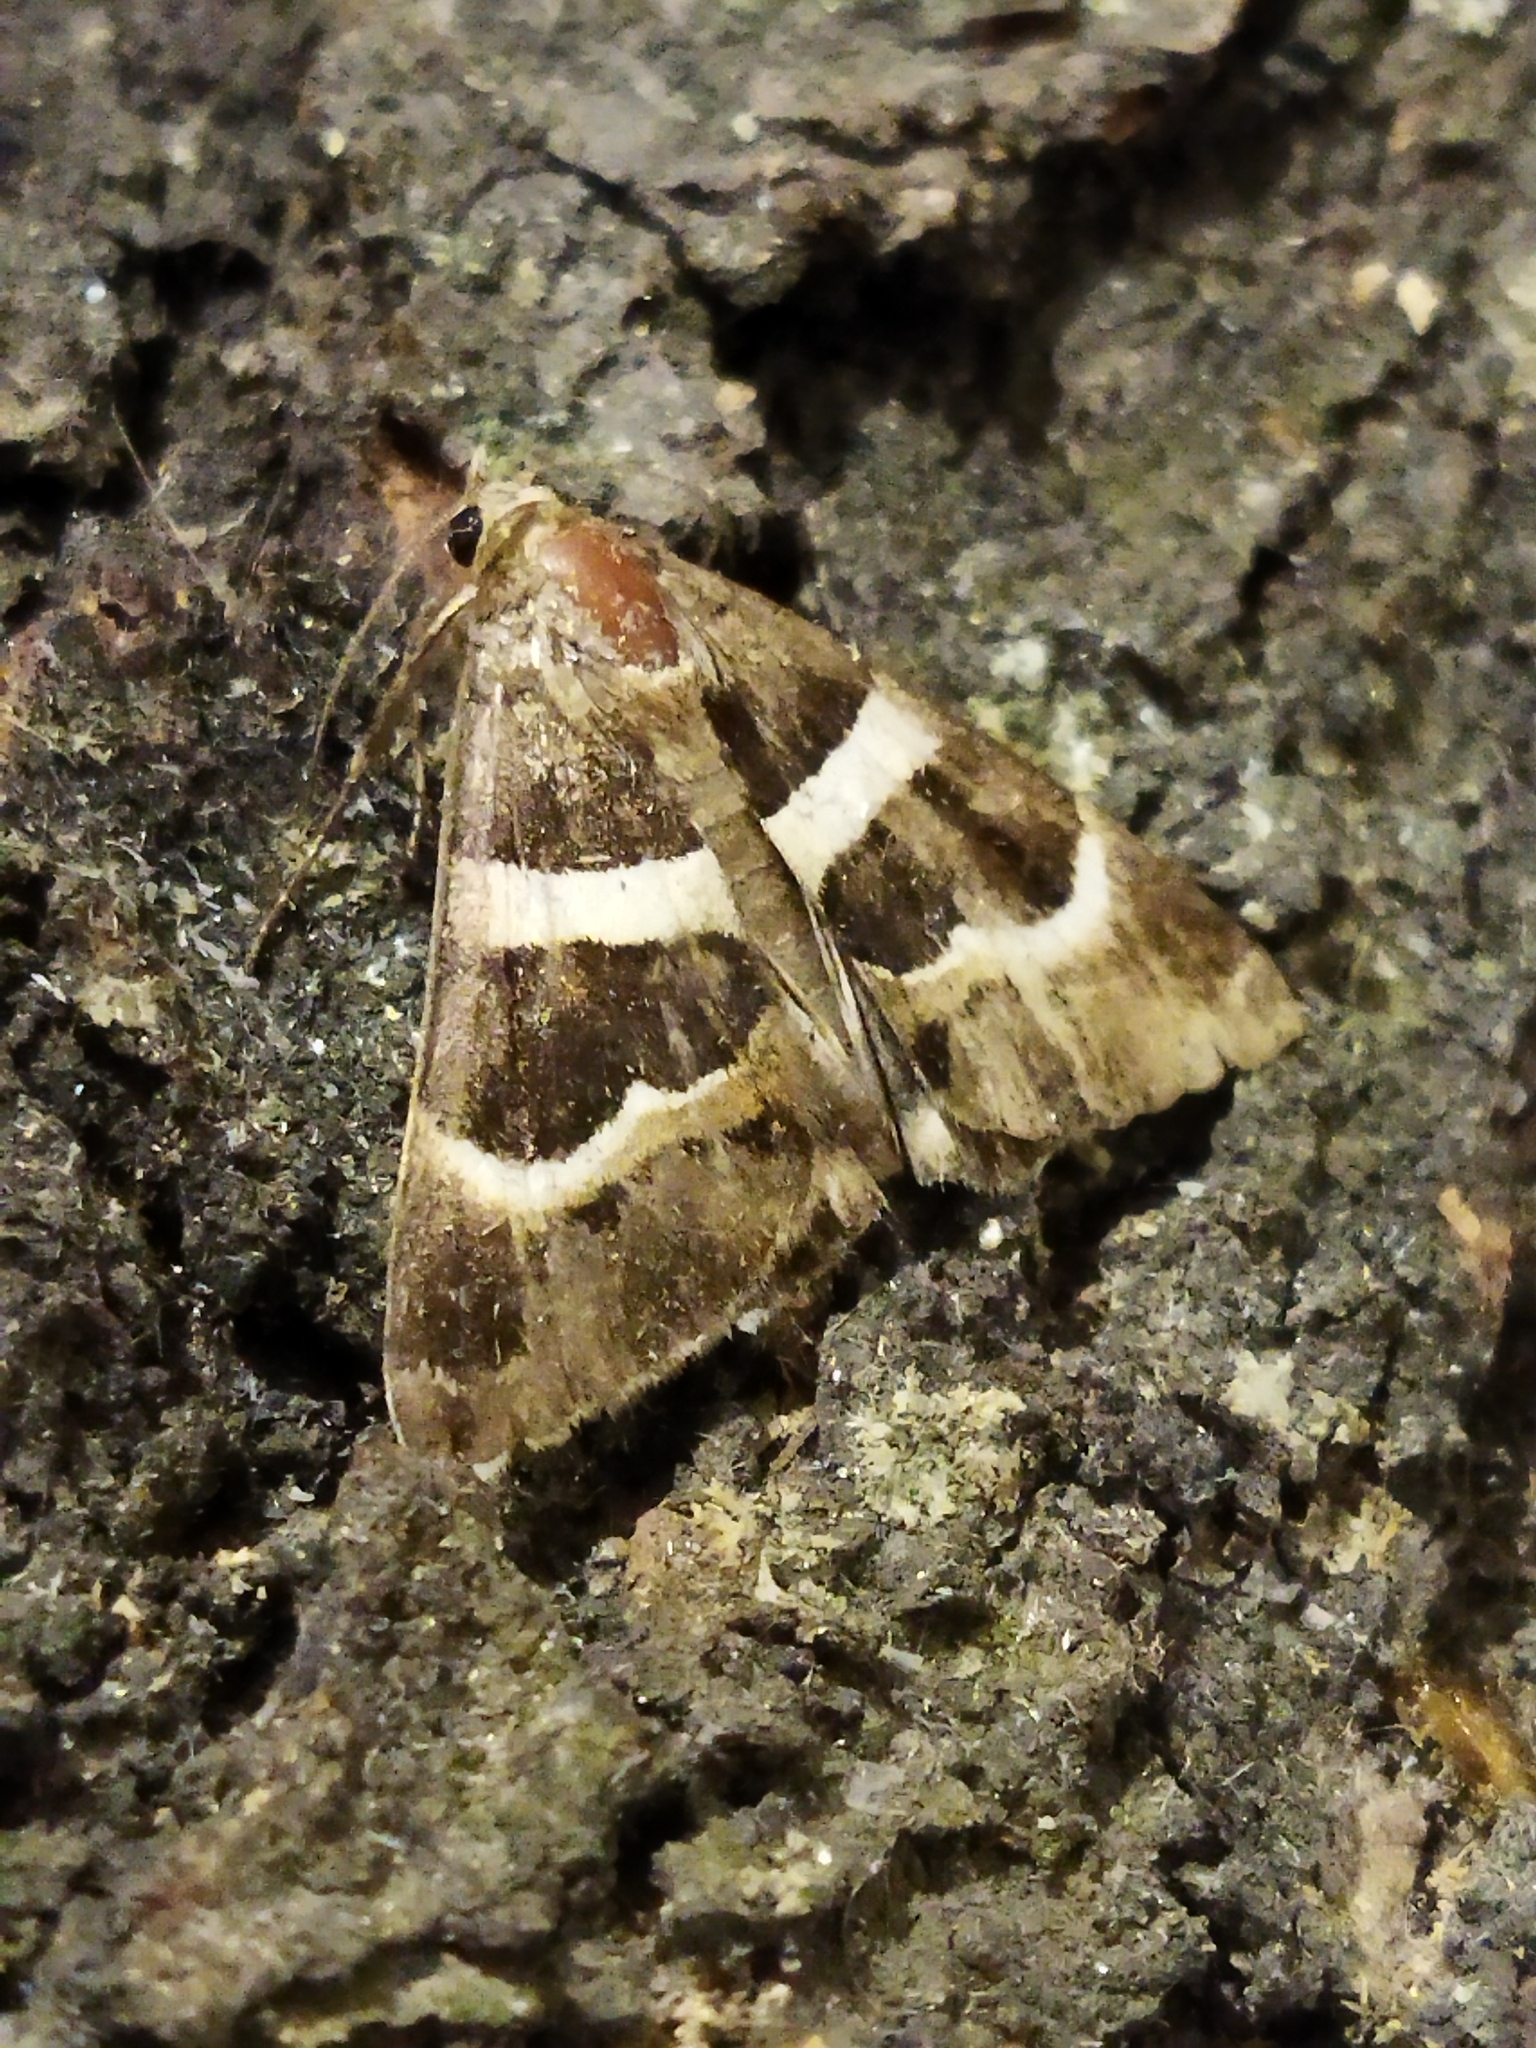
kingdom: Animalia
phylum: Arthropoda
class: Insecta
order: Lepidoptera
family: Erebidae
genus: Grammodes
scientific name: Grammodes stolida
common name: Geometrician
